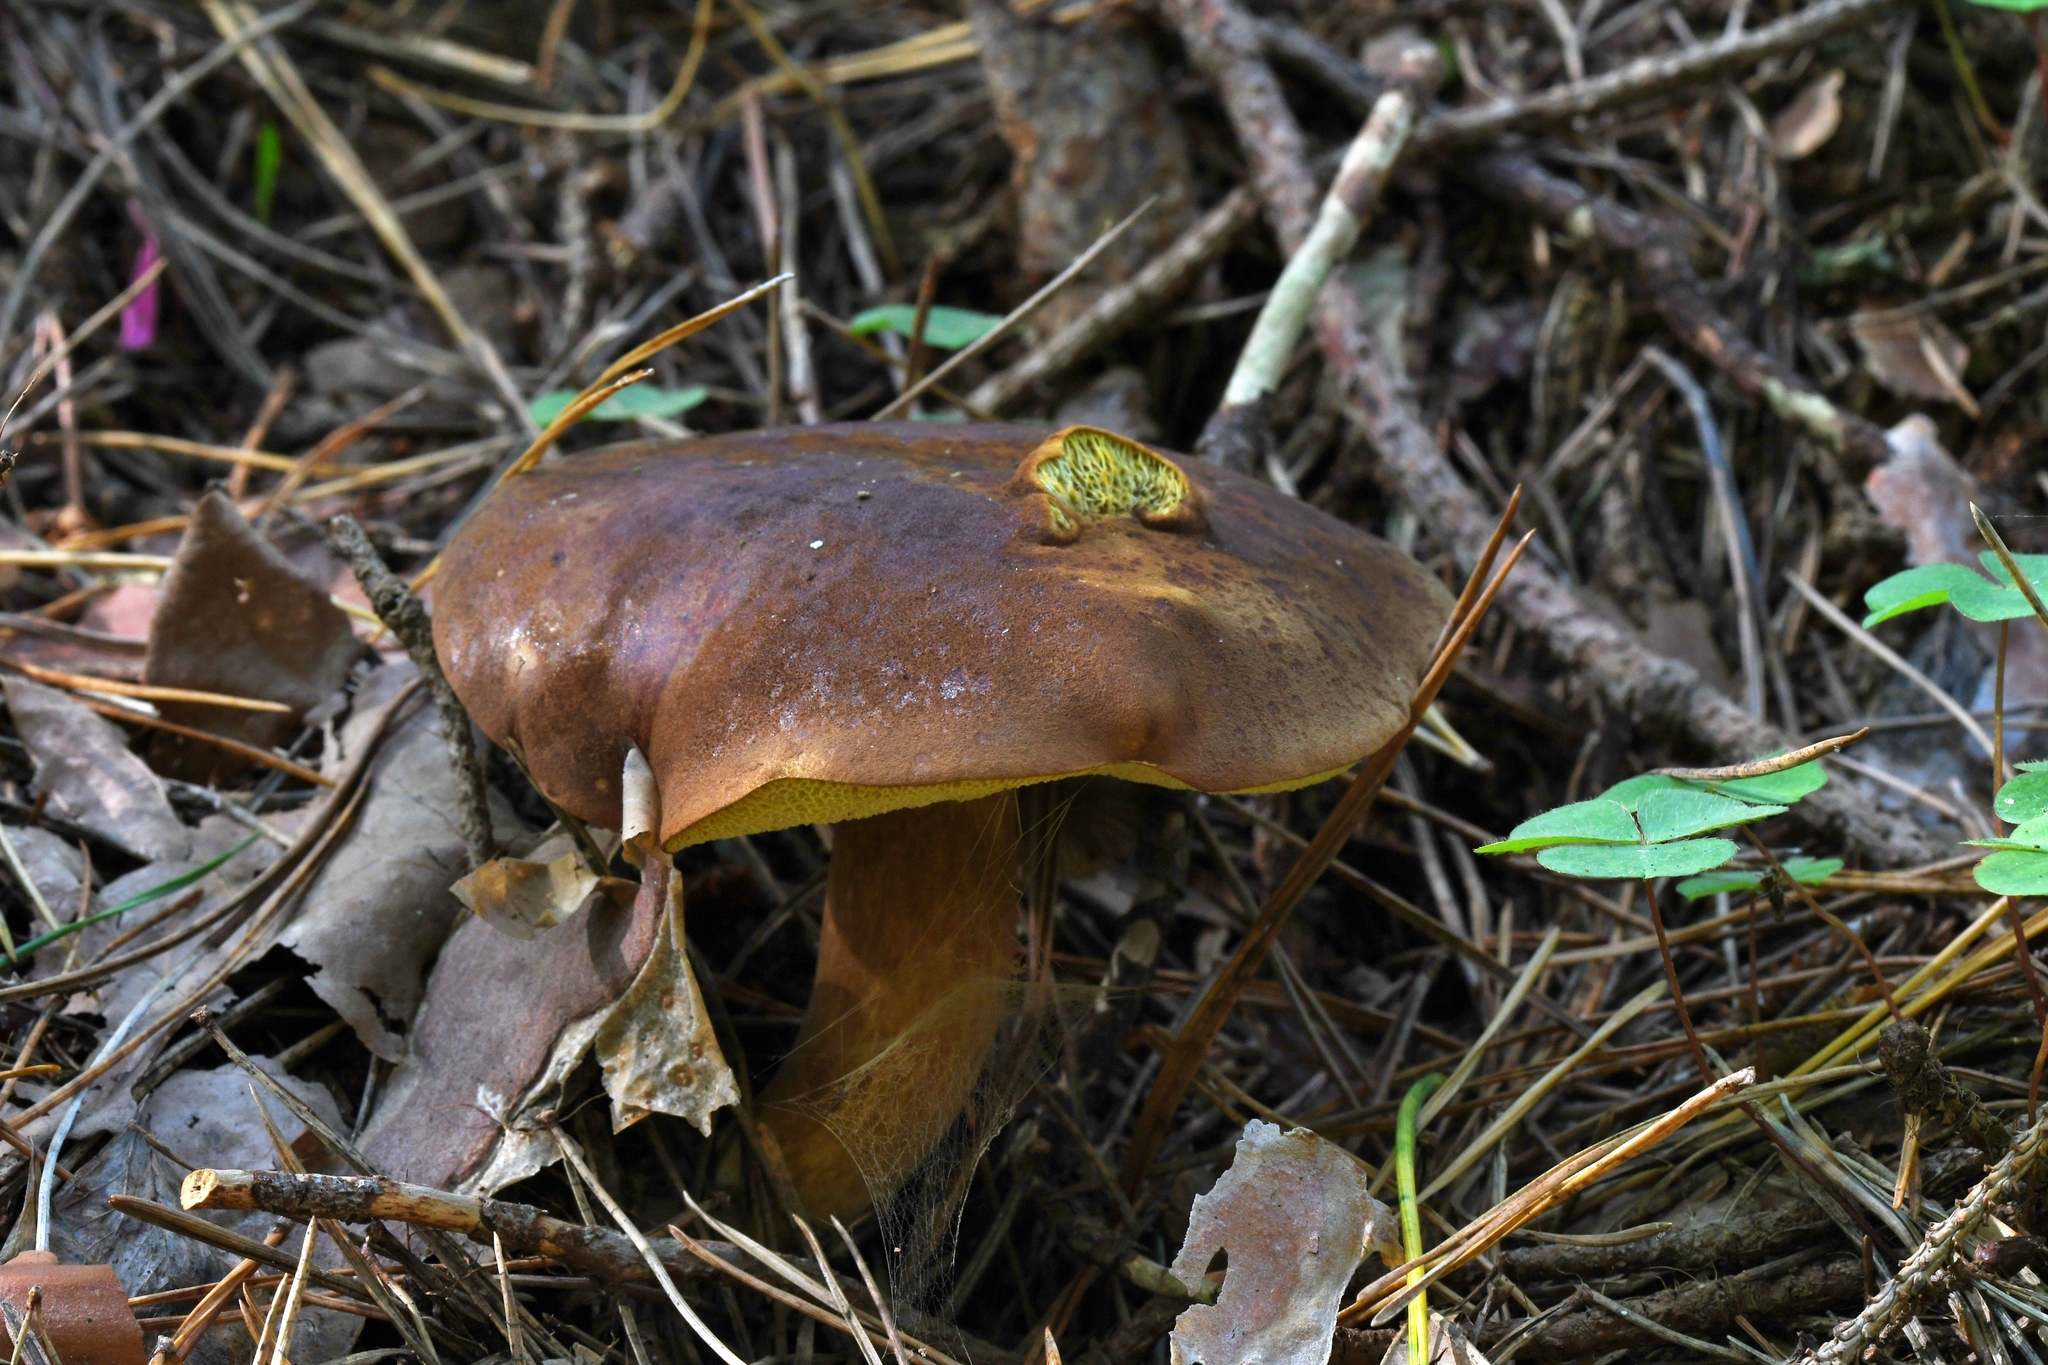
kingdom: Fungi
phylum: Basidiomycota
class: Agaricomycetes
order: Boletales
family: Boletaceae
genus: Imleria
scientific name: Imleria badia
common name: Bay bolete
